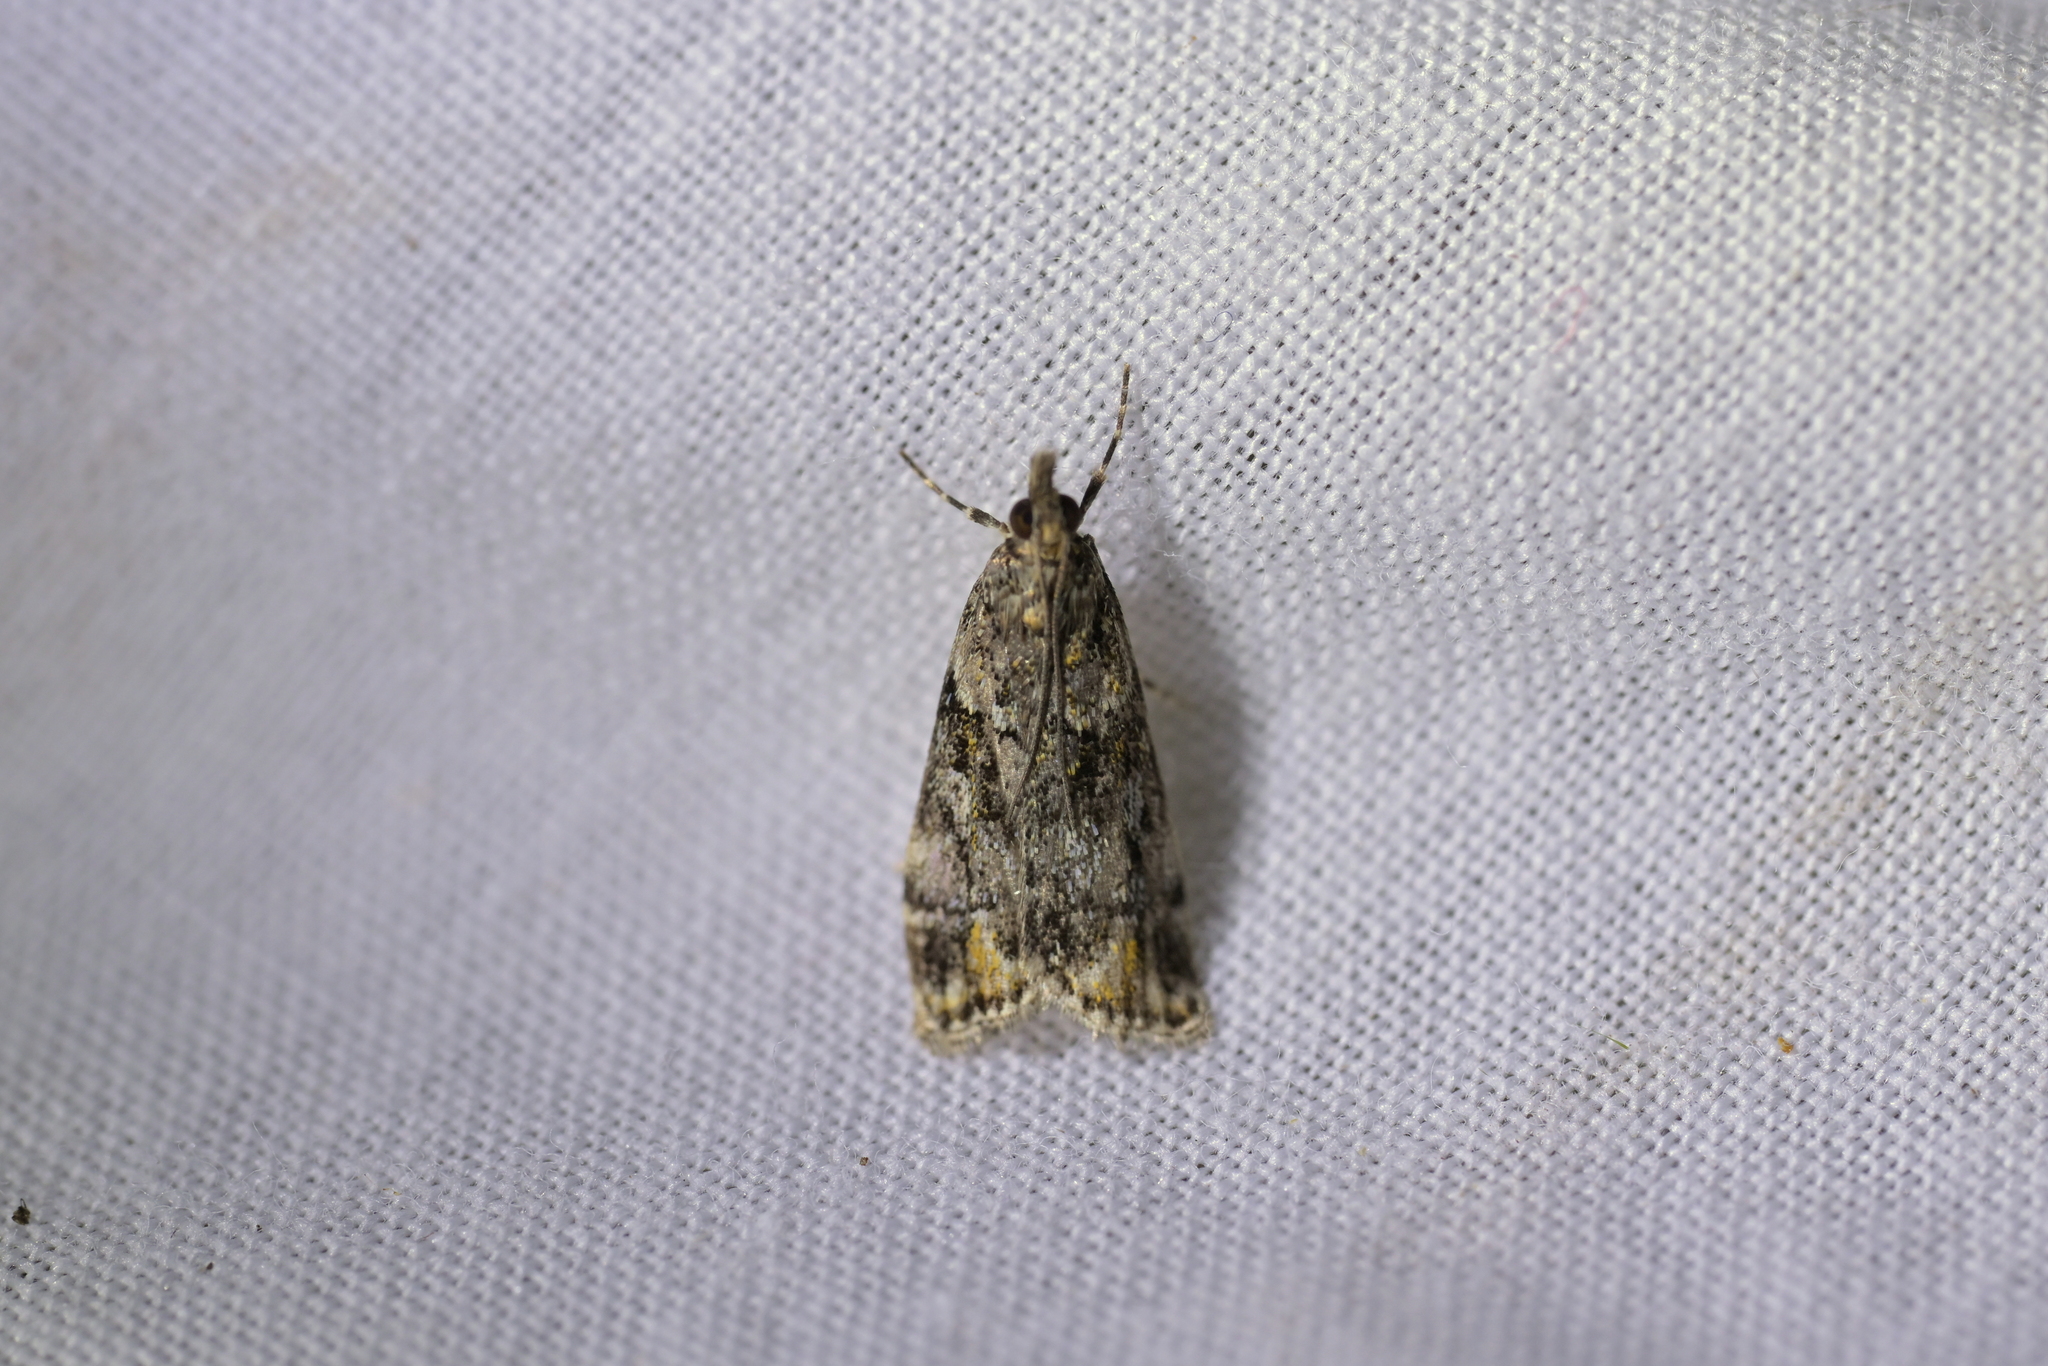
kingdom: Animalia
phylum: Arthropoda
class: Insecta
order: Lepidoptera
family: Crambidae
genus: Eudonia
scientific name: Eudonia minualis
